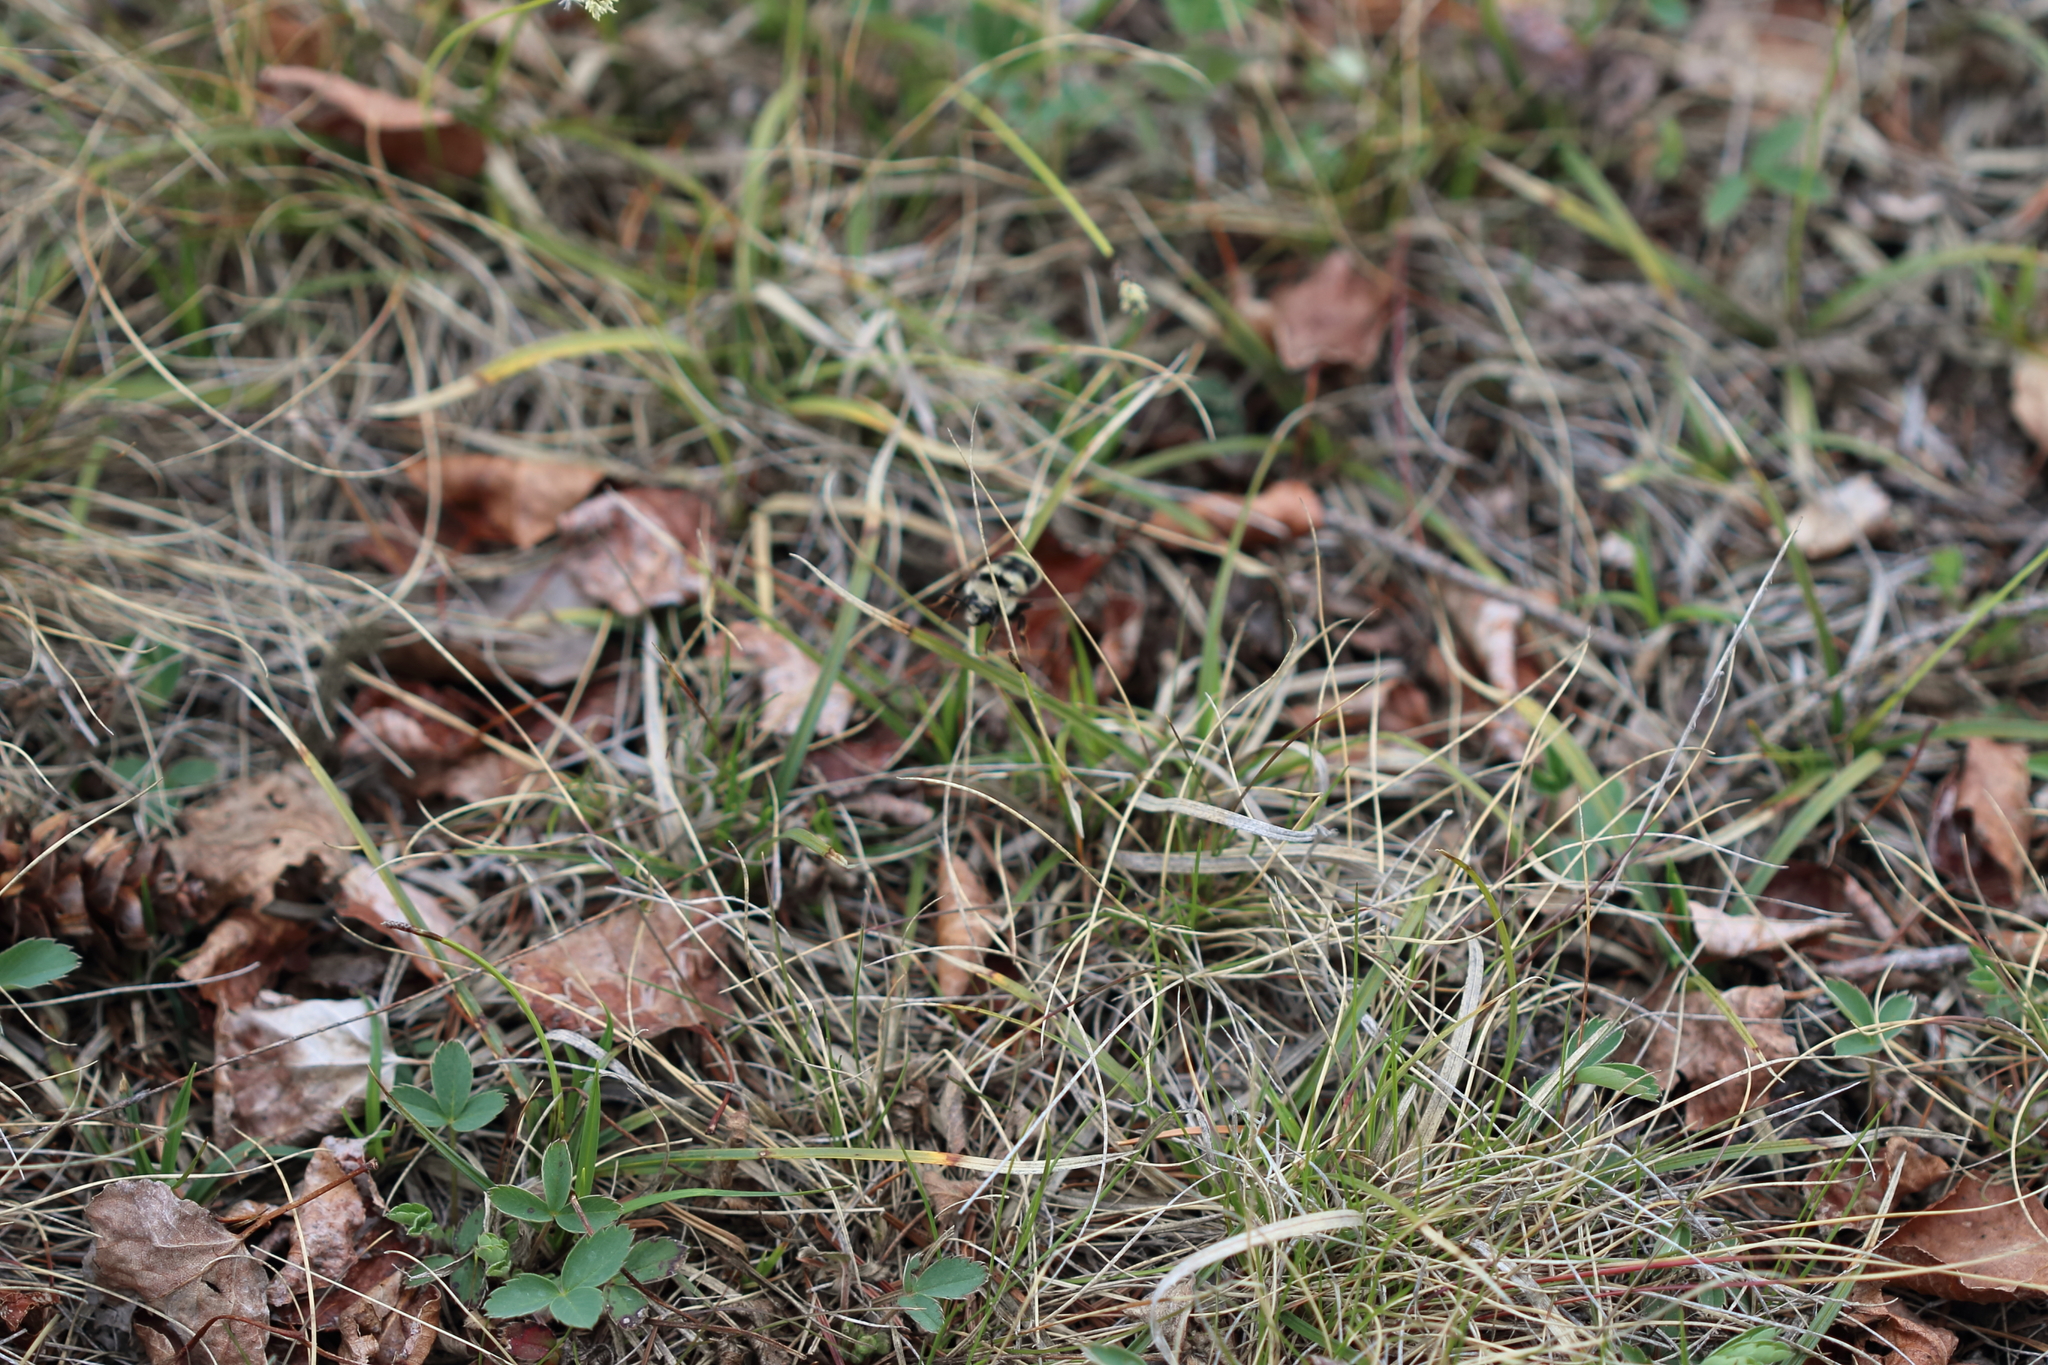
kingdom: Animalia
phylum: Arthropoda
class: Insecta
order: Hymenoptera
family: Apidae
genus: Bombus
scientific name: Bombus vancouverensis
